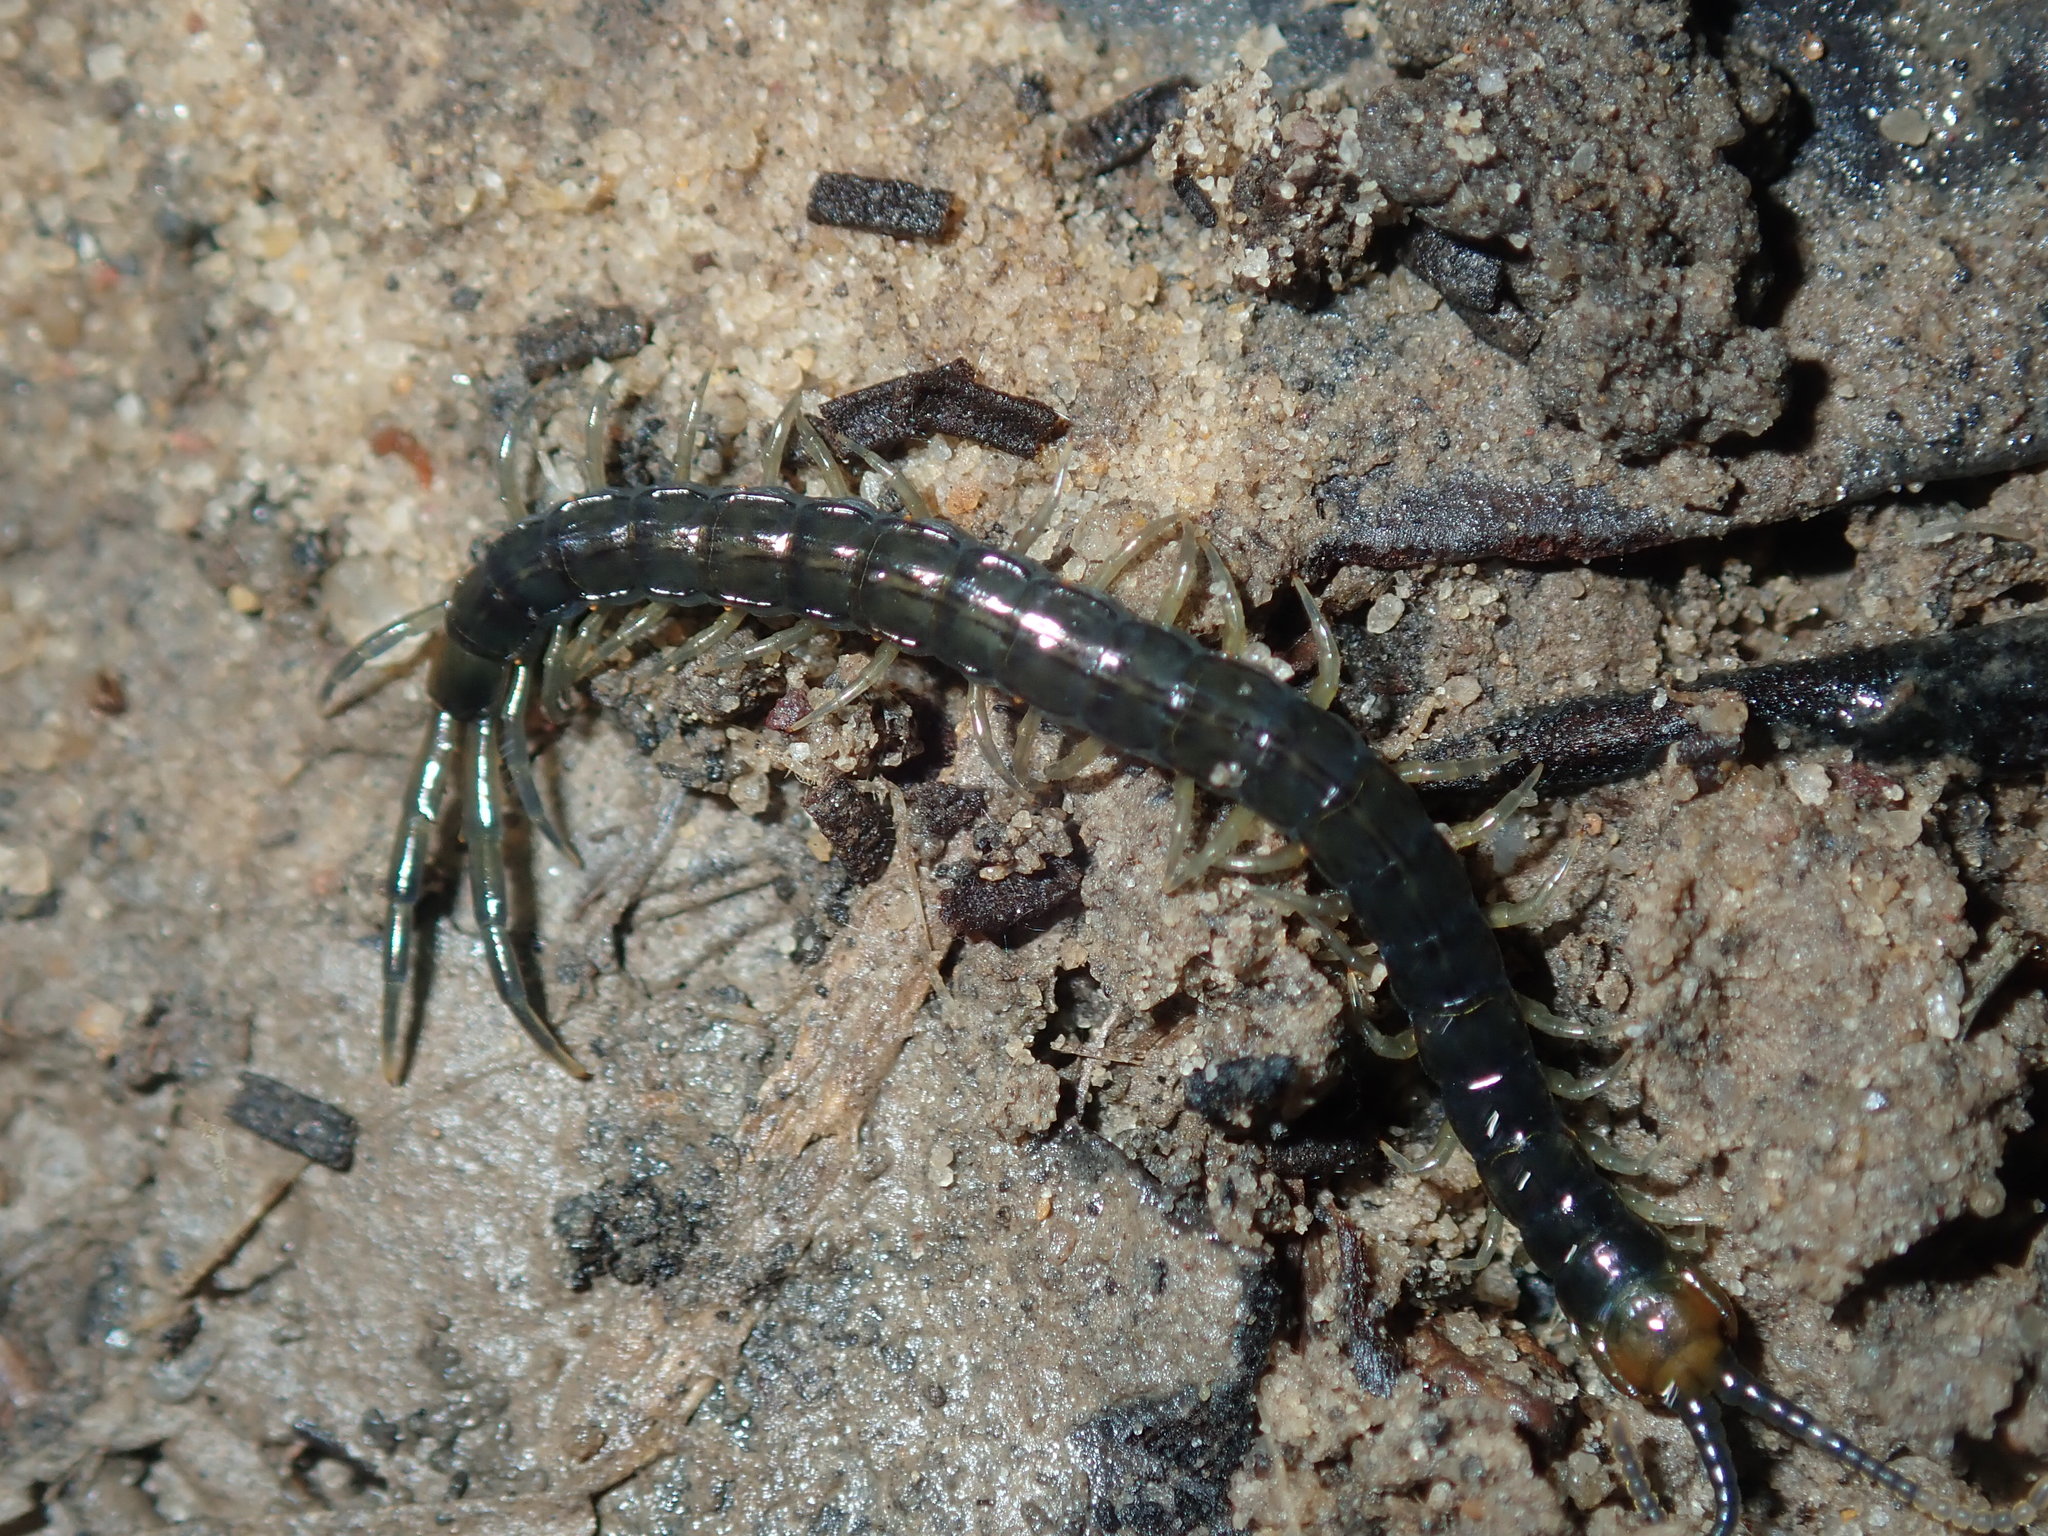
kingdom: Animalia
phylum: Arthropoda
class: Chilopoda
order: Scolopendromorpha
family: Scolopendridae
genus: Cormocephalus
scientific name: Cormocephalus westwoodi
